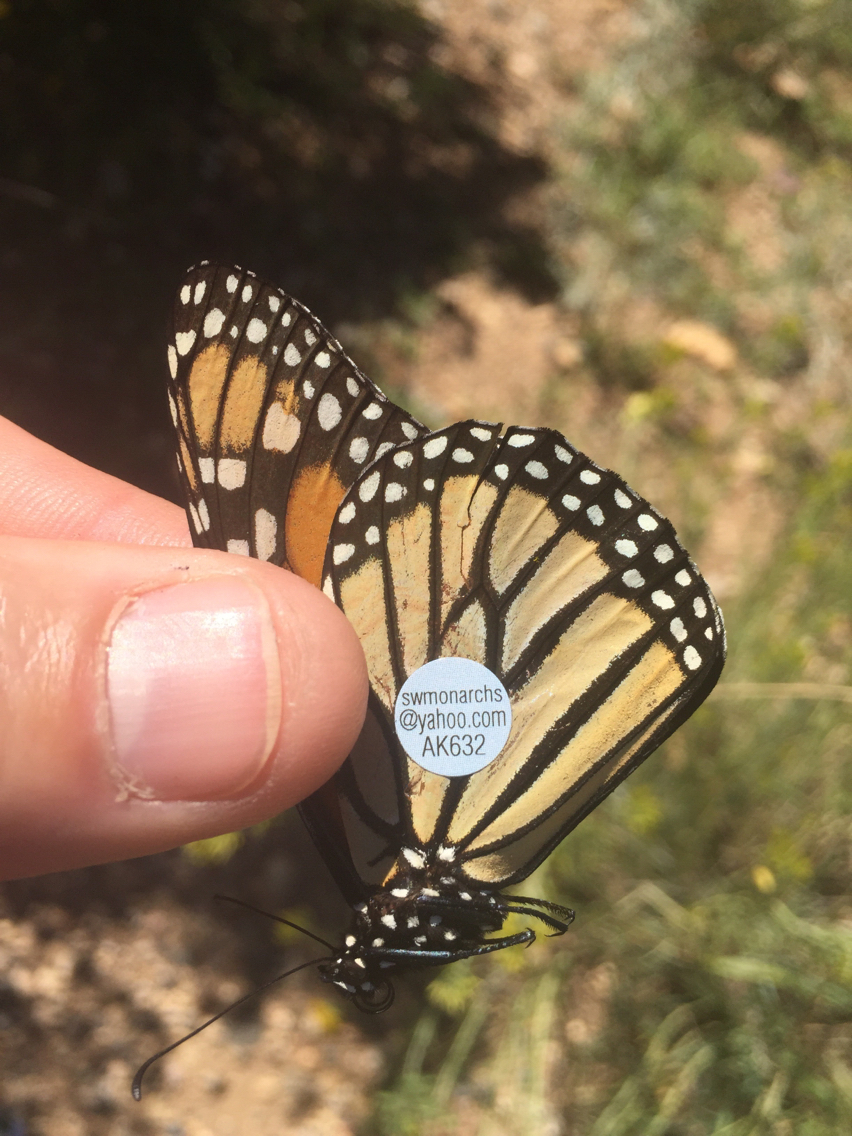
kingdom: Animalia
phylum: Arthropoda
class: Insecta
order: Lepidoptera
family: Nymphalidae
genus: Danaus
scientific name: Danaus plexippus
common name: Monarch
